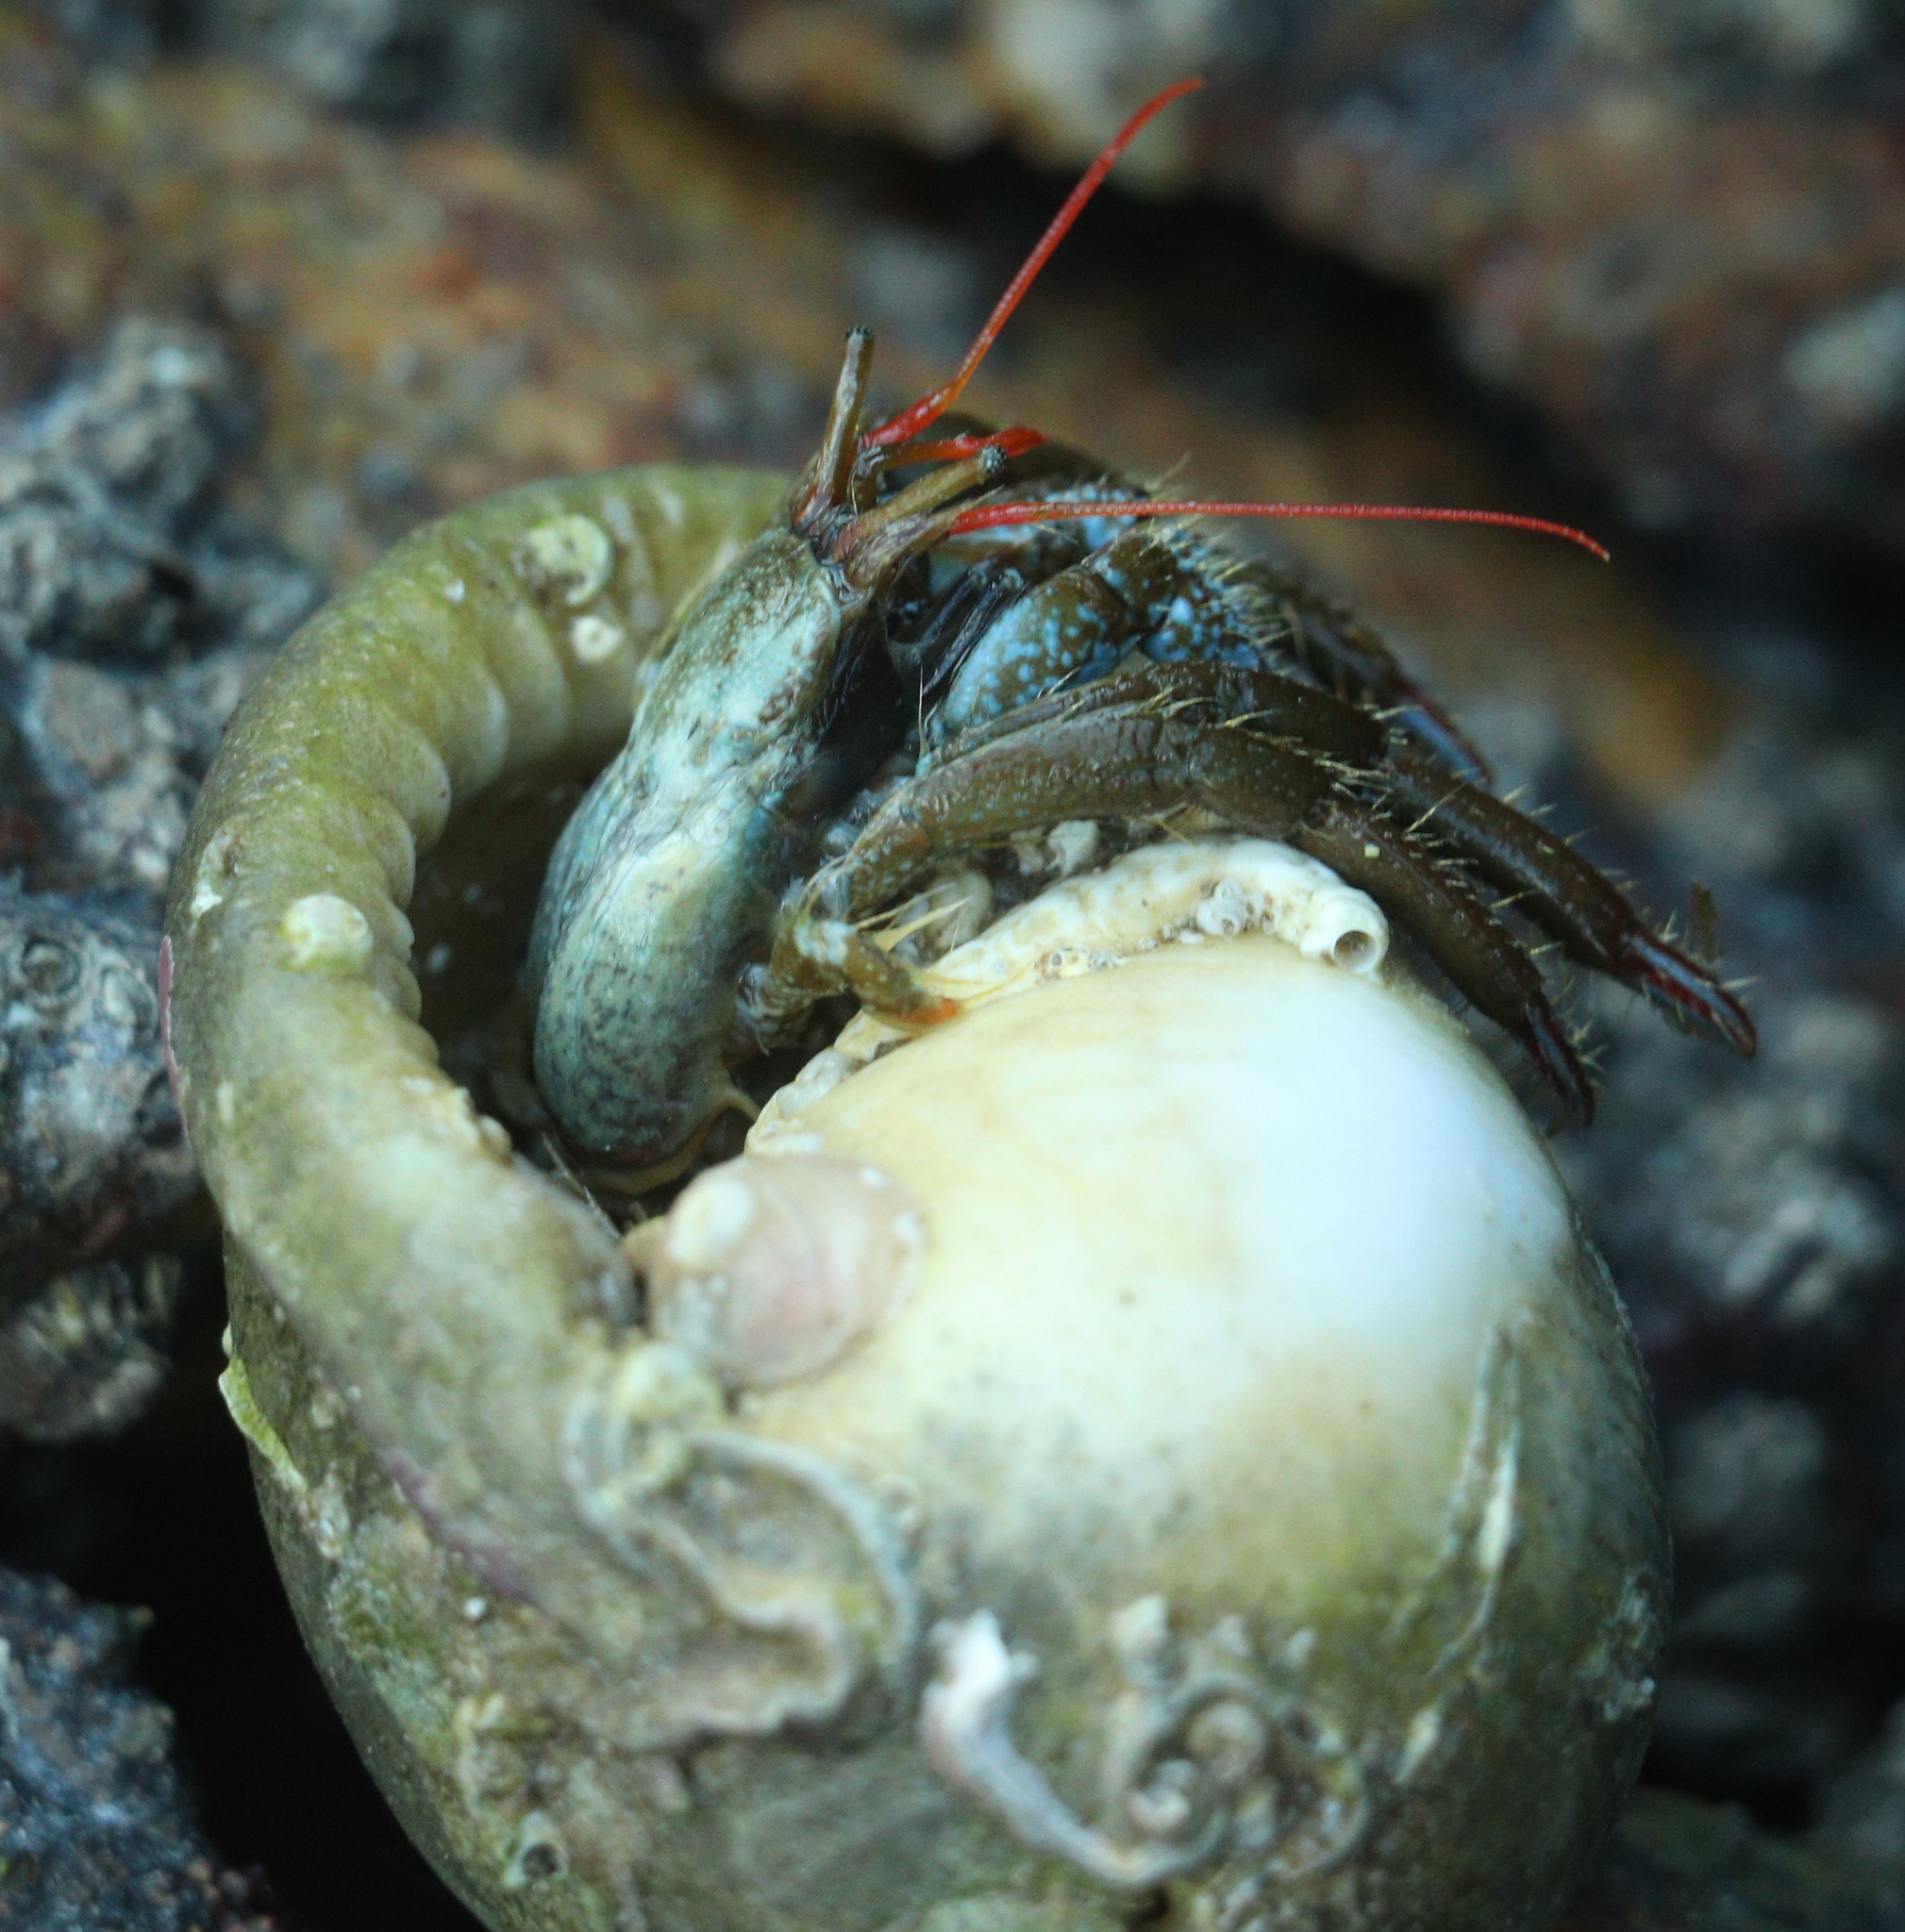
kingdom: Animalia
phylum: Arthropoda
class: Malacostraca
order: Decapoda
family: Diogenidae
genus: Clibanarius
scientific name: Clibanarius erythropus
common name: Hermit crab
